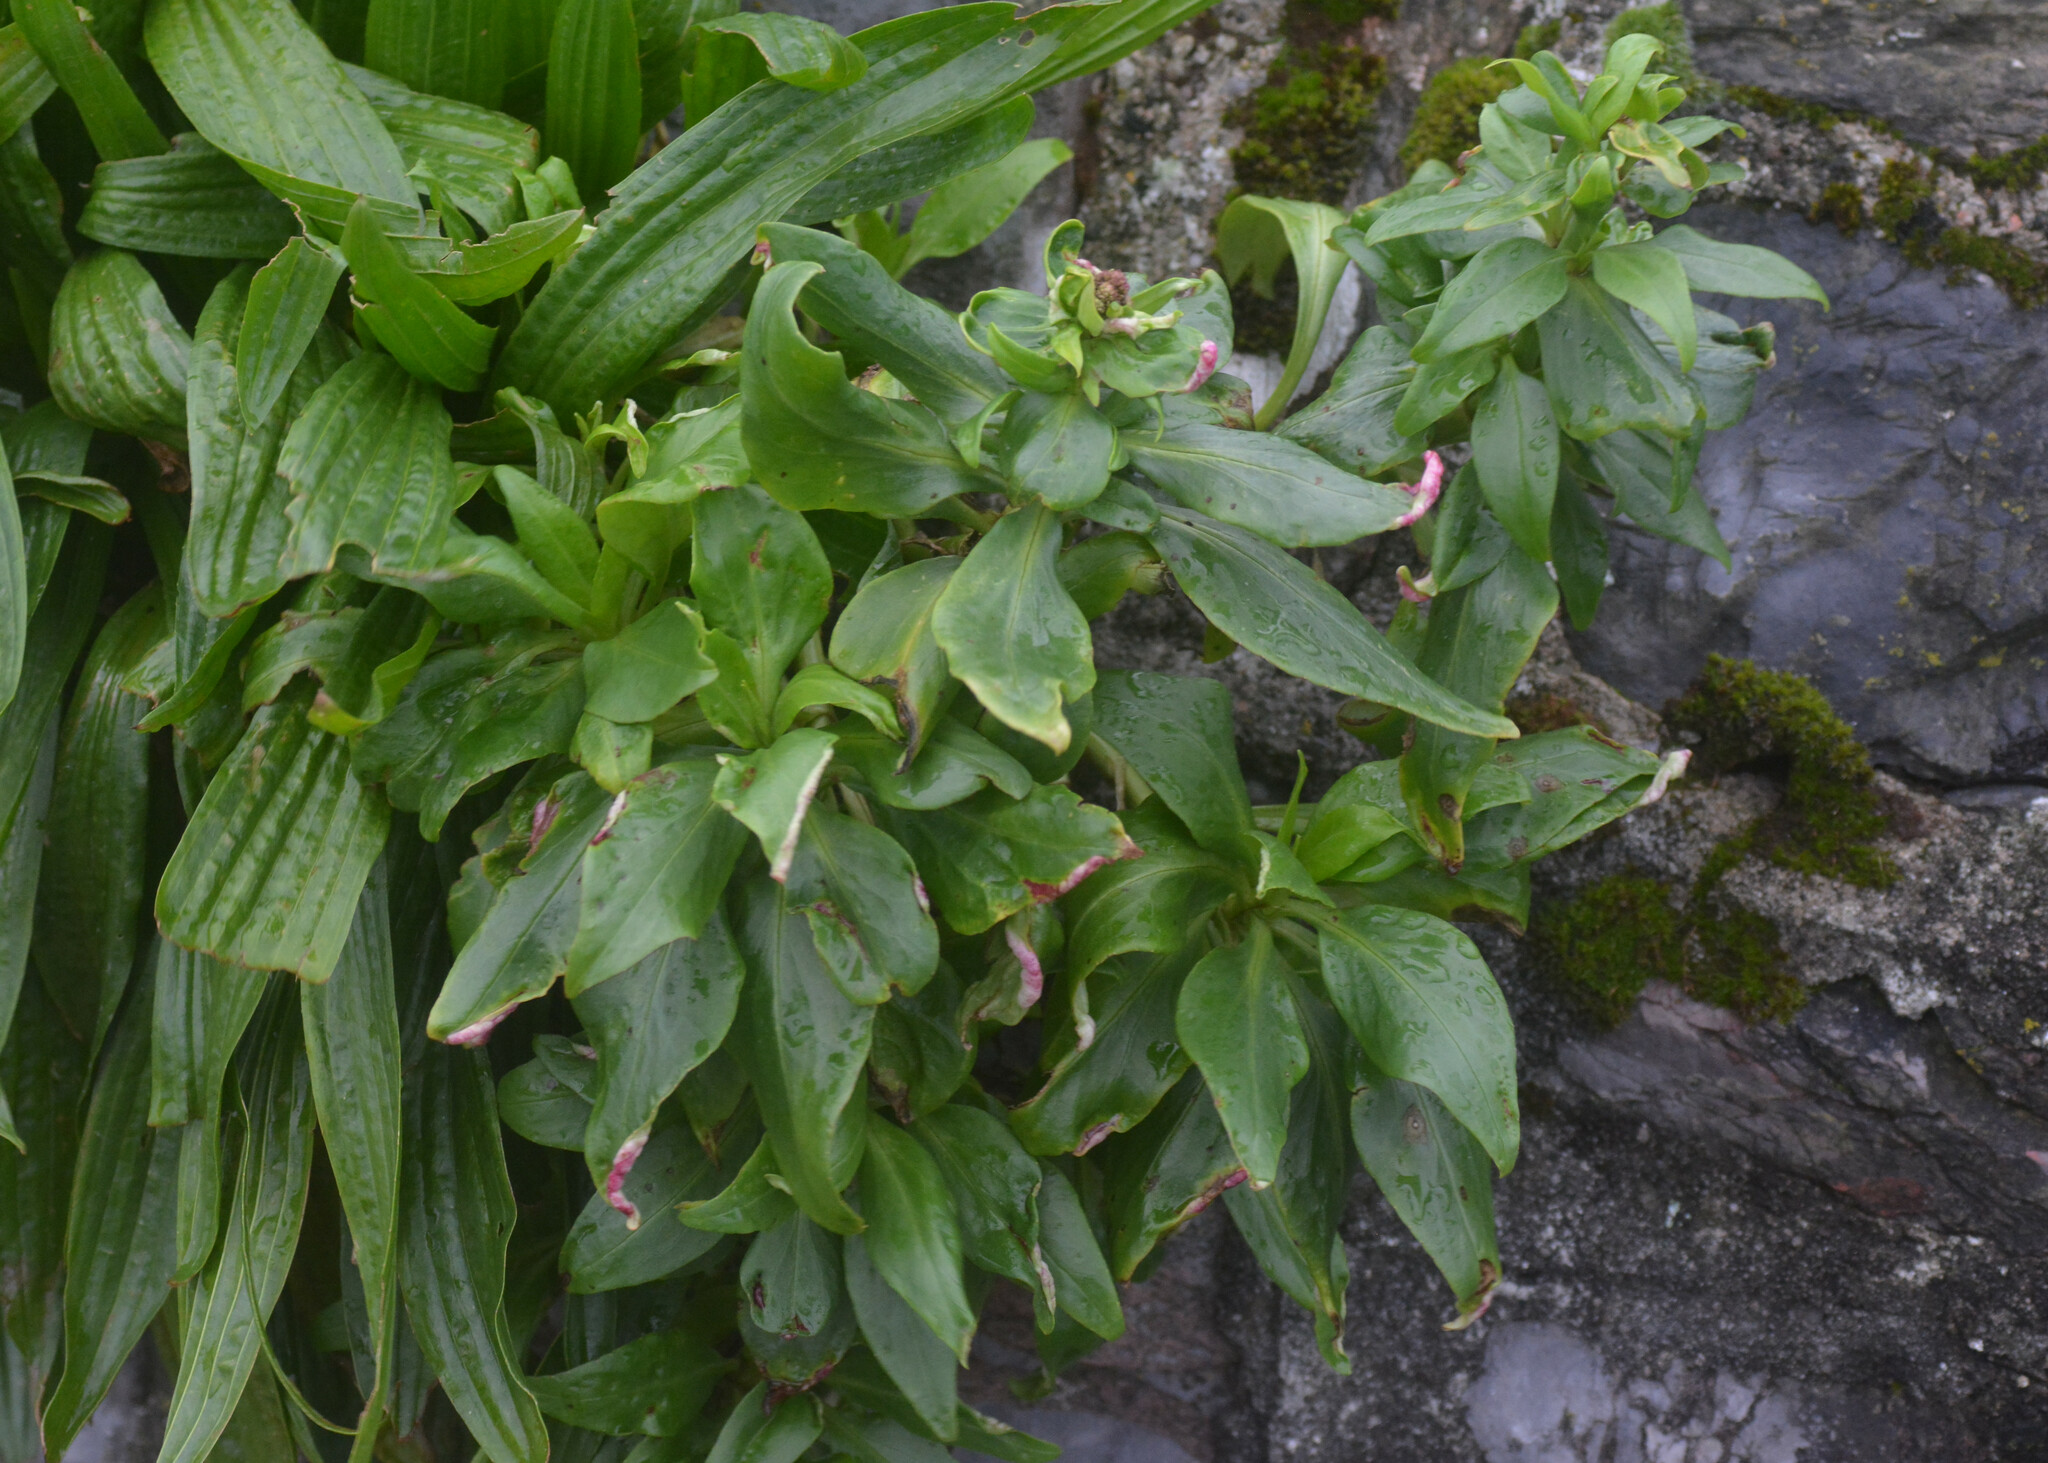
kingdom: Animalia
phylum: Arthropoda
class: Insecta
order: Hemiptera
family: Triozidae
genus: Trioza
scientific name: Trioza centranthi
